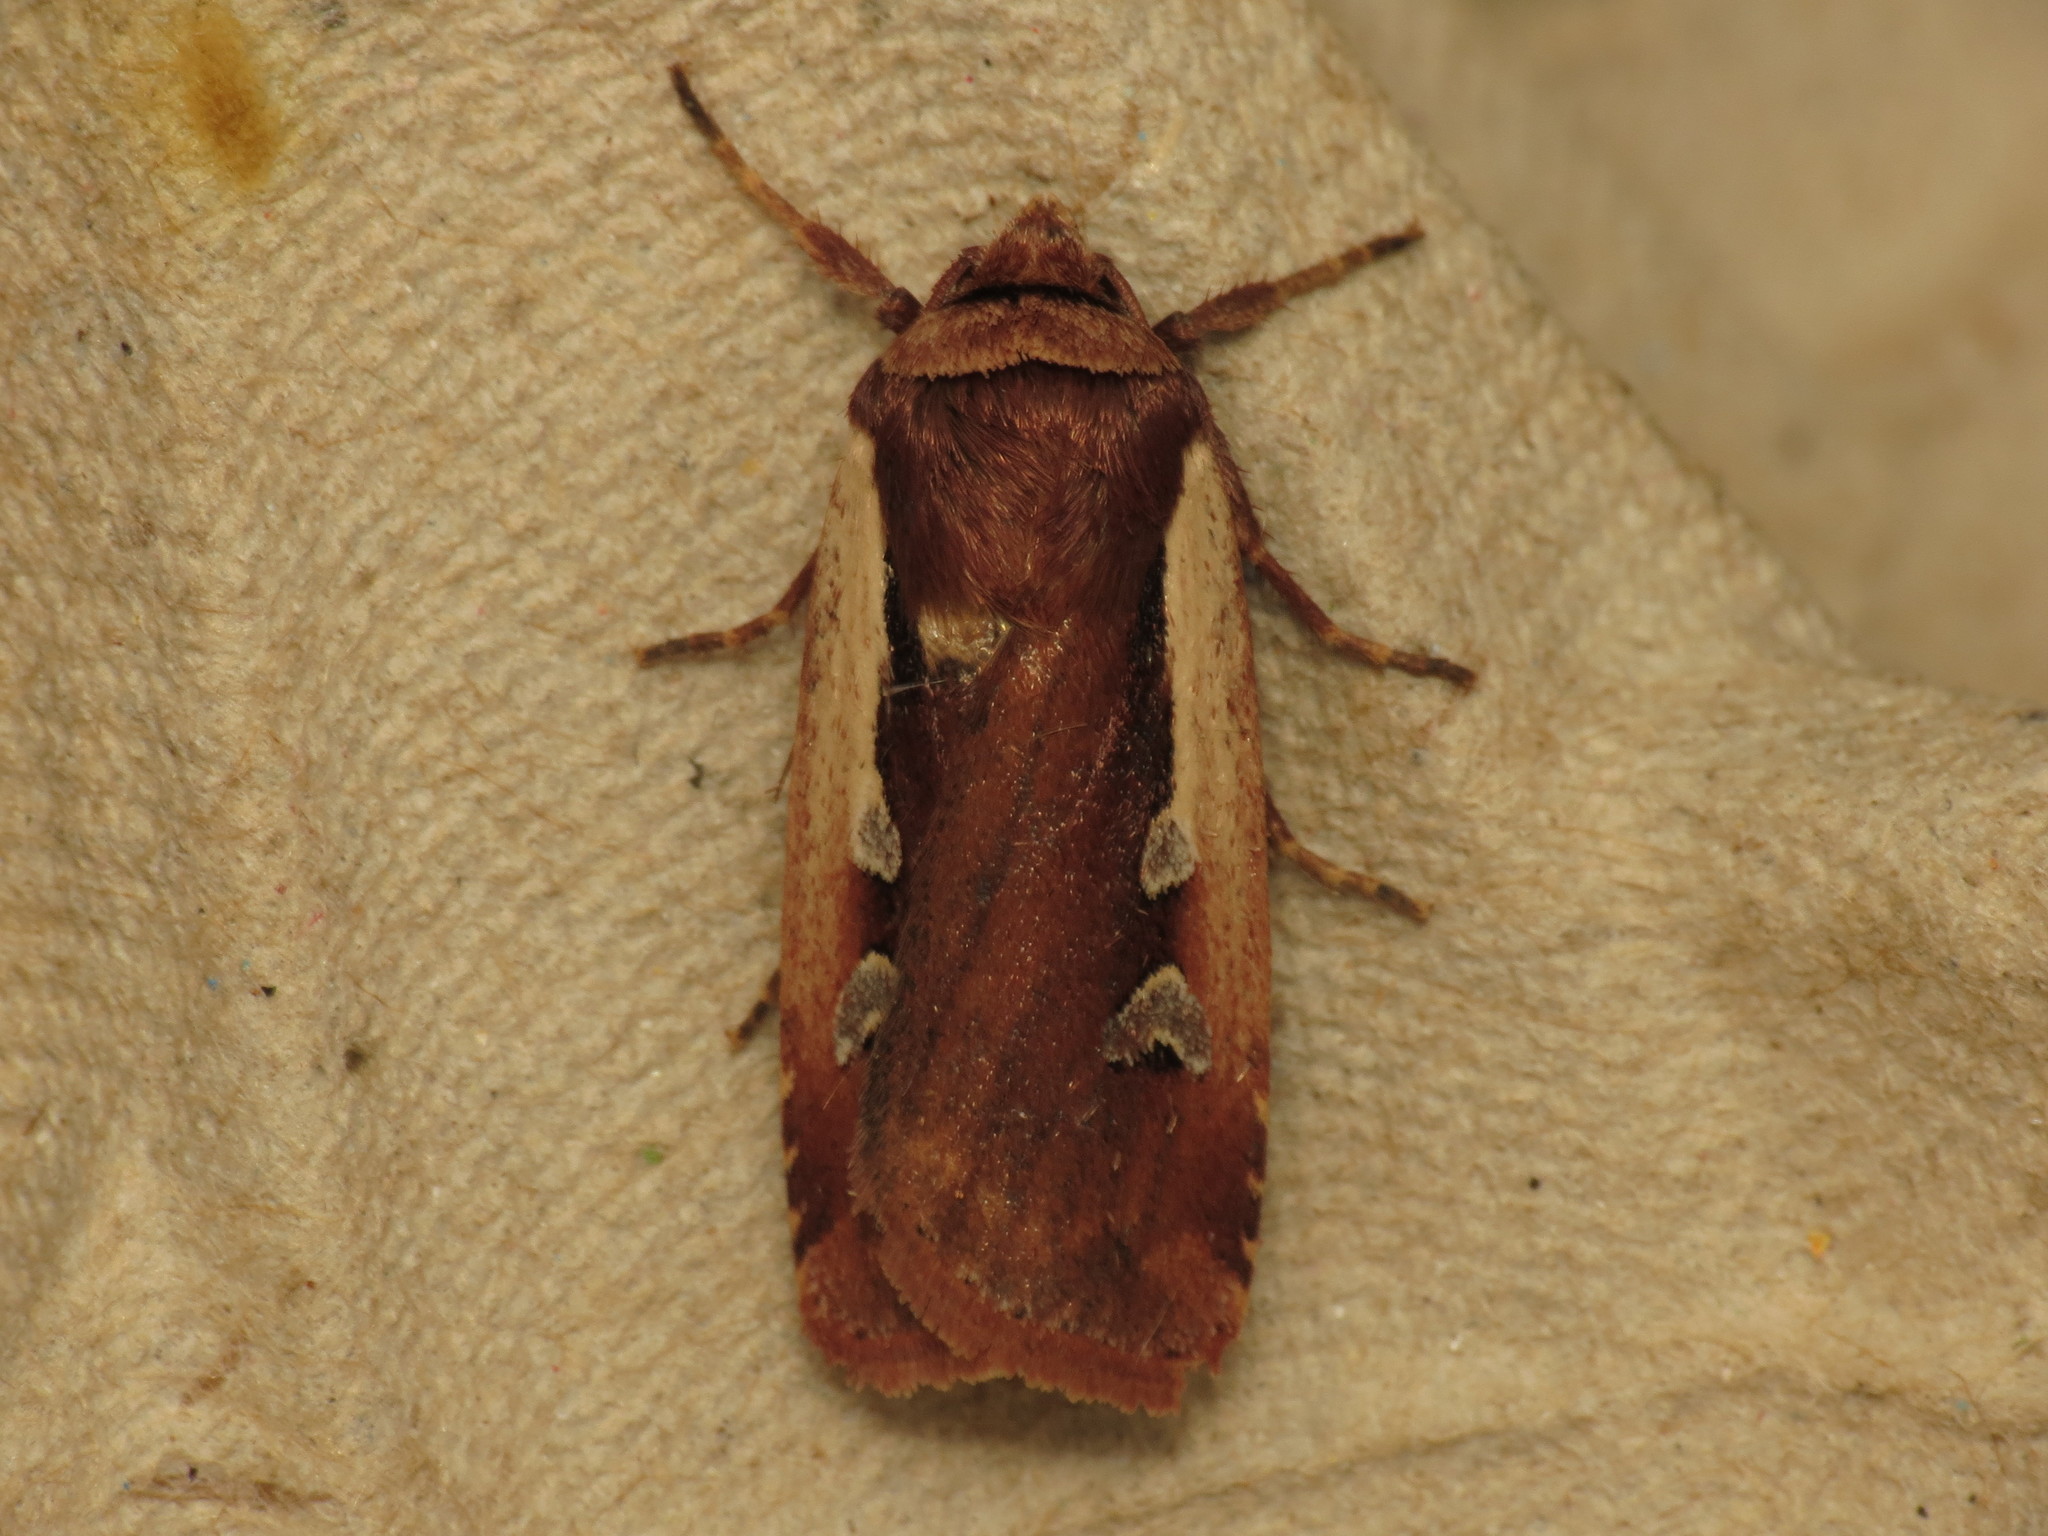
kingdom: Animalia
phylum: Arthropoda
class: Insecta
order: Lepidoptera
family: Noctuidae
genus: Ochropleura
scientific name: Ochropleura plecta
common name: Flame shoulder
